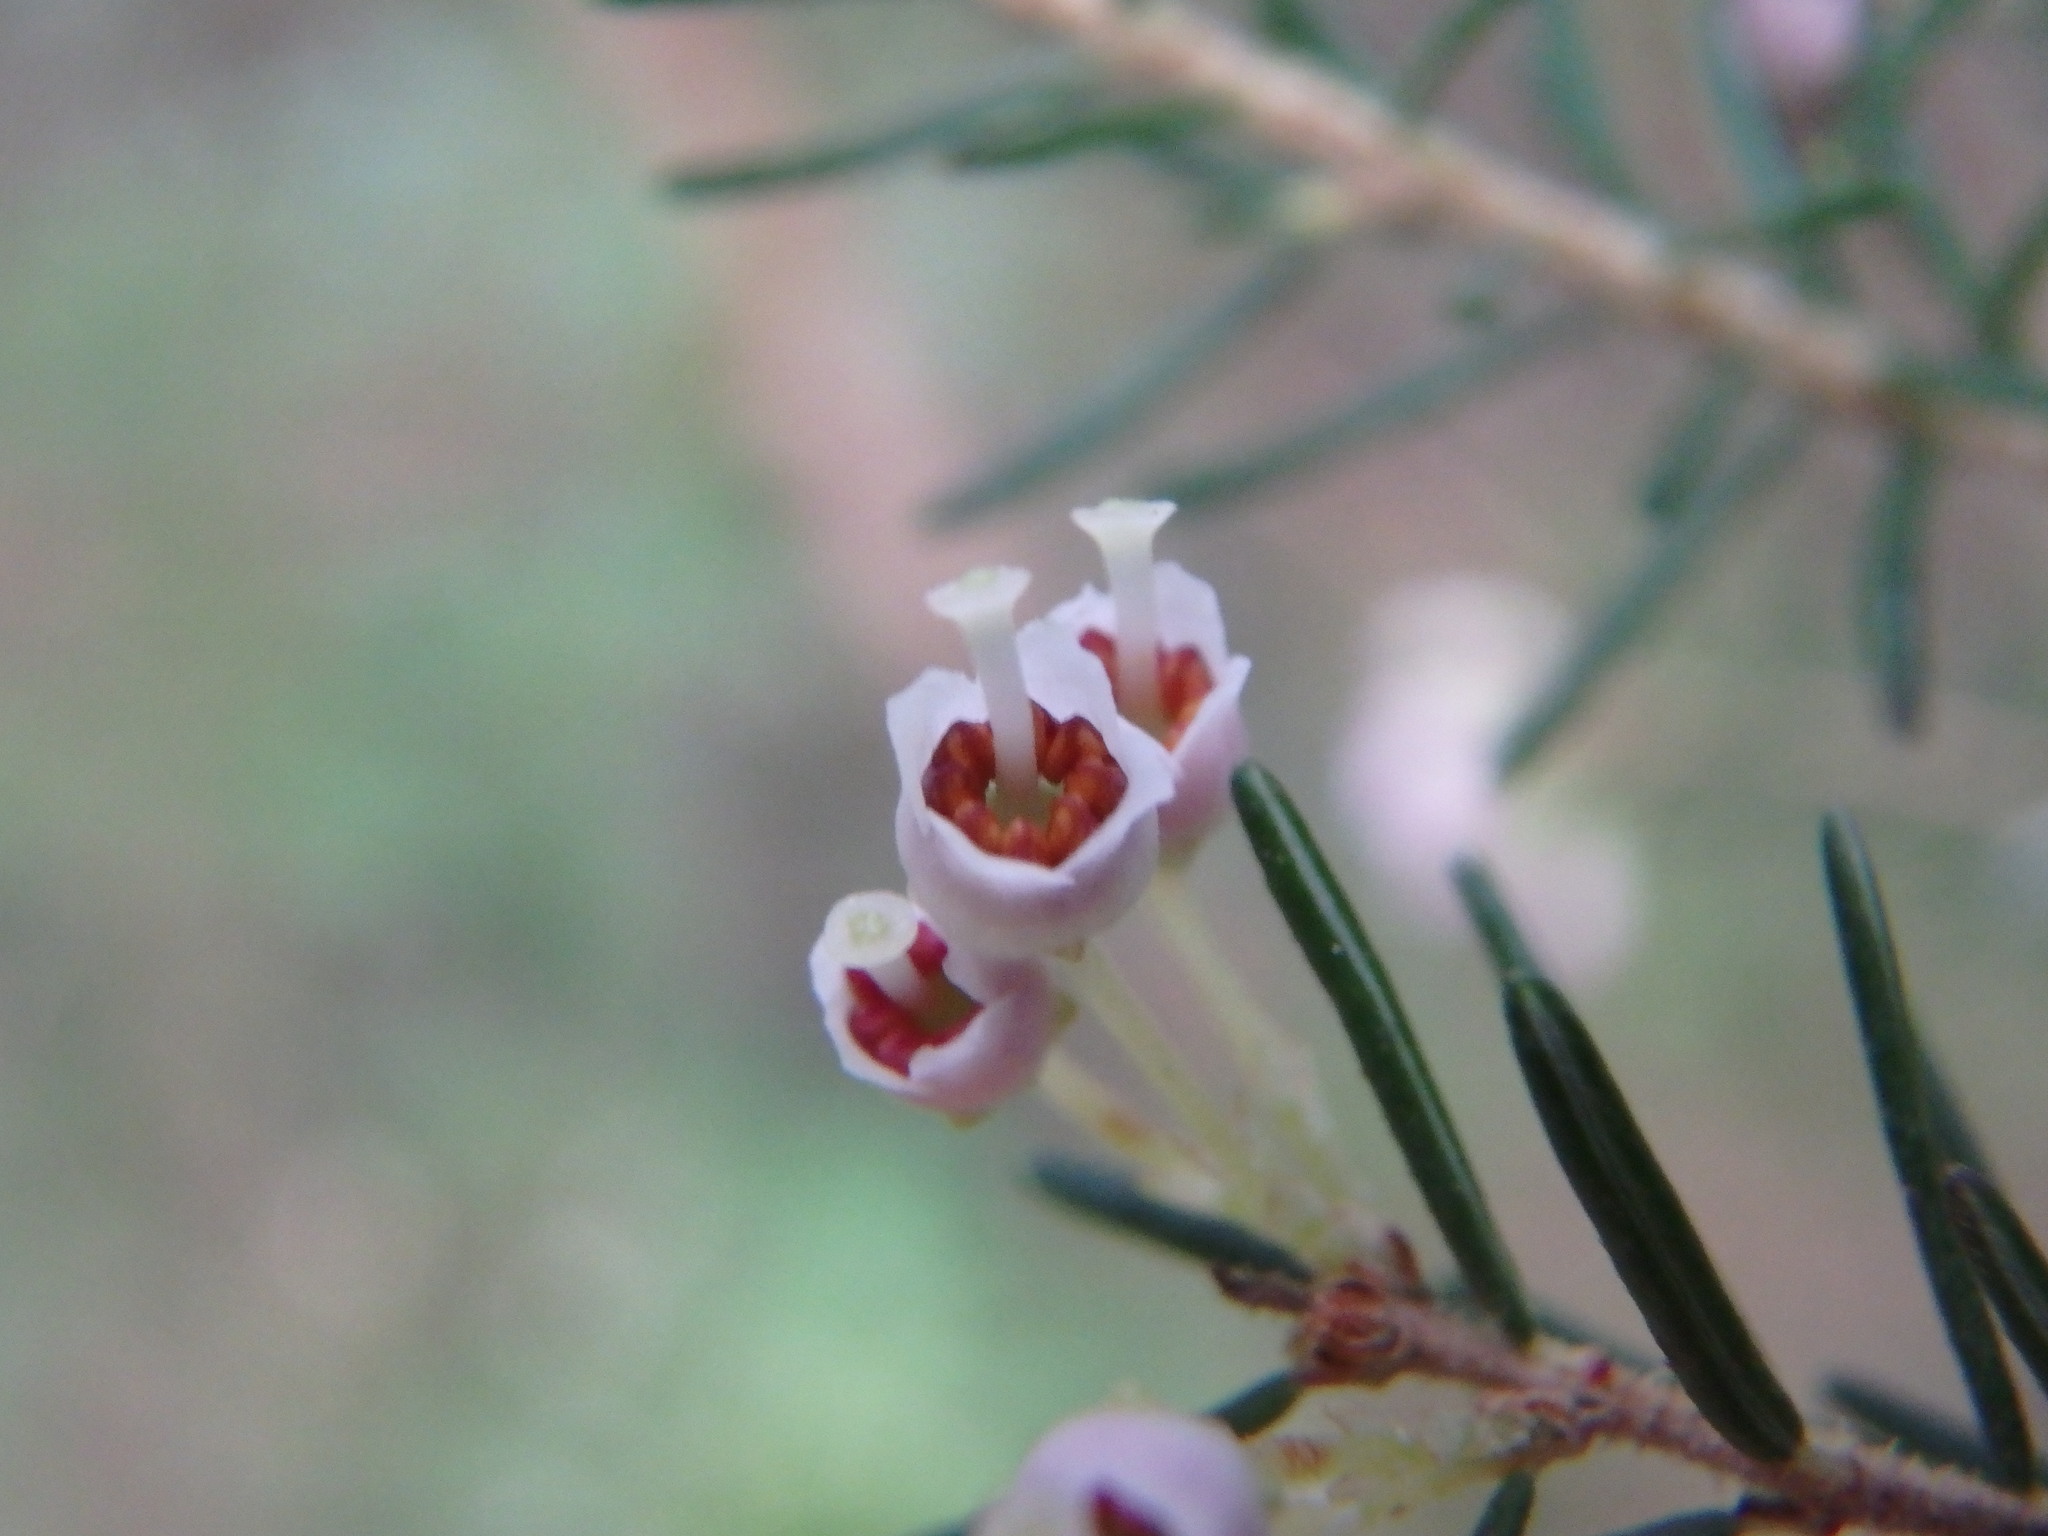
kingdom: Plantae
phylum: Tracheophyta
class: Magnoliopsida
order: Ericales
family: Ericaceae
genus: Erica
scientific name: Erica canariensis
